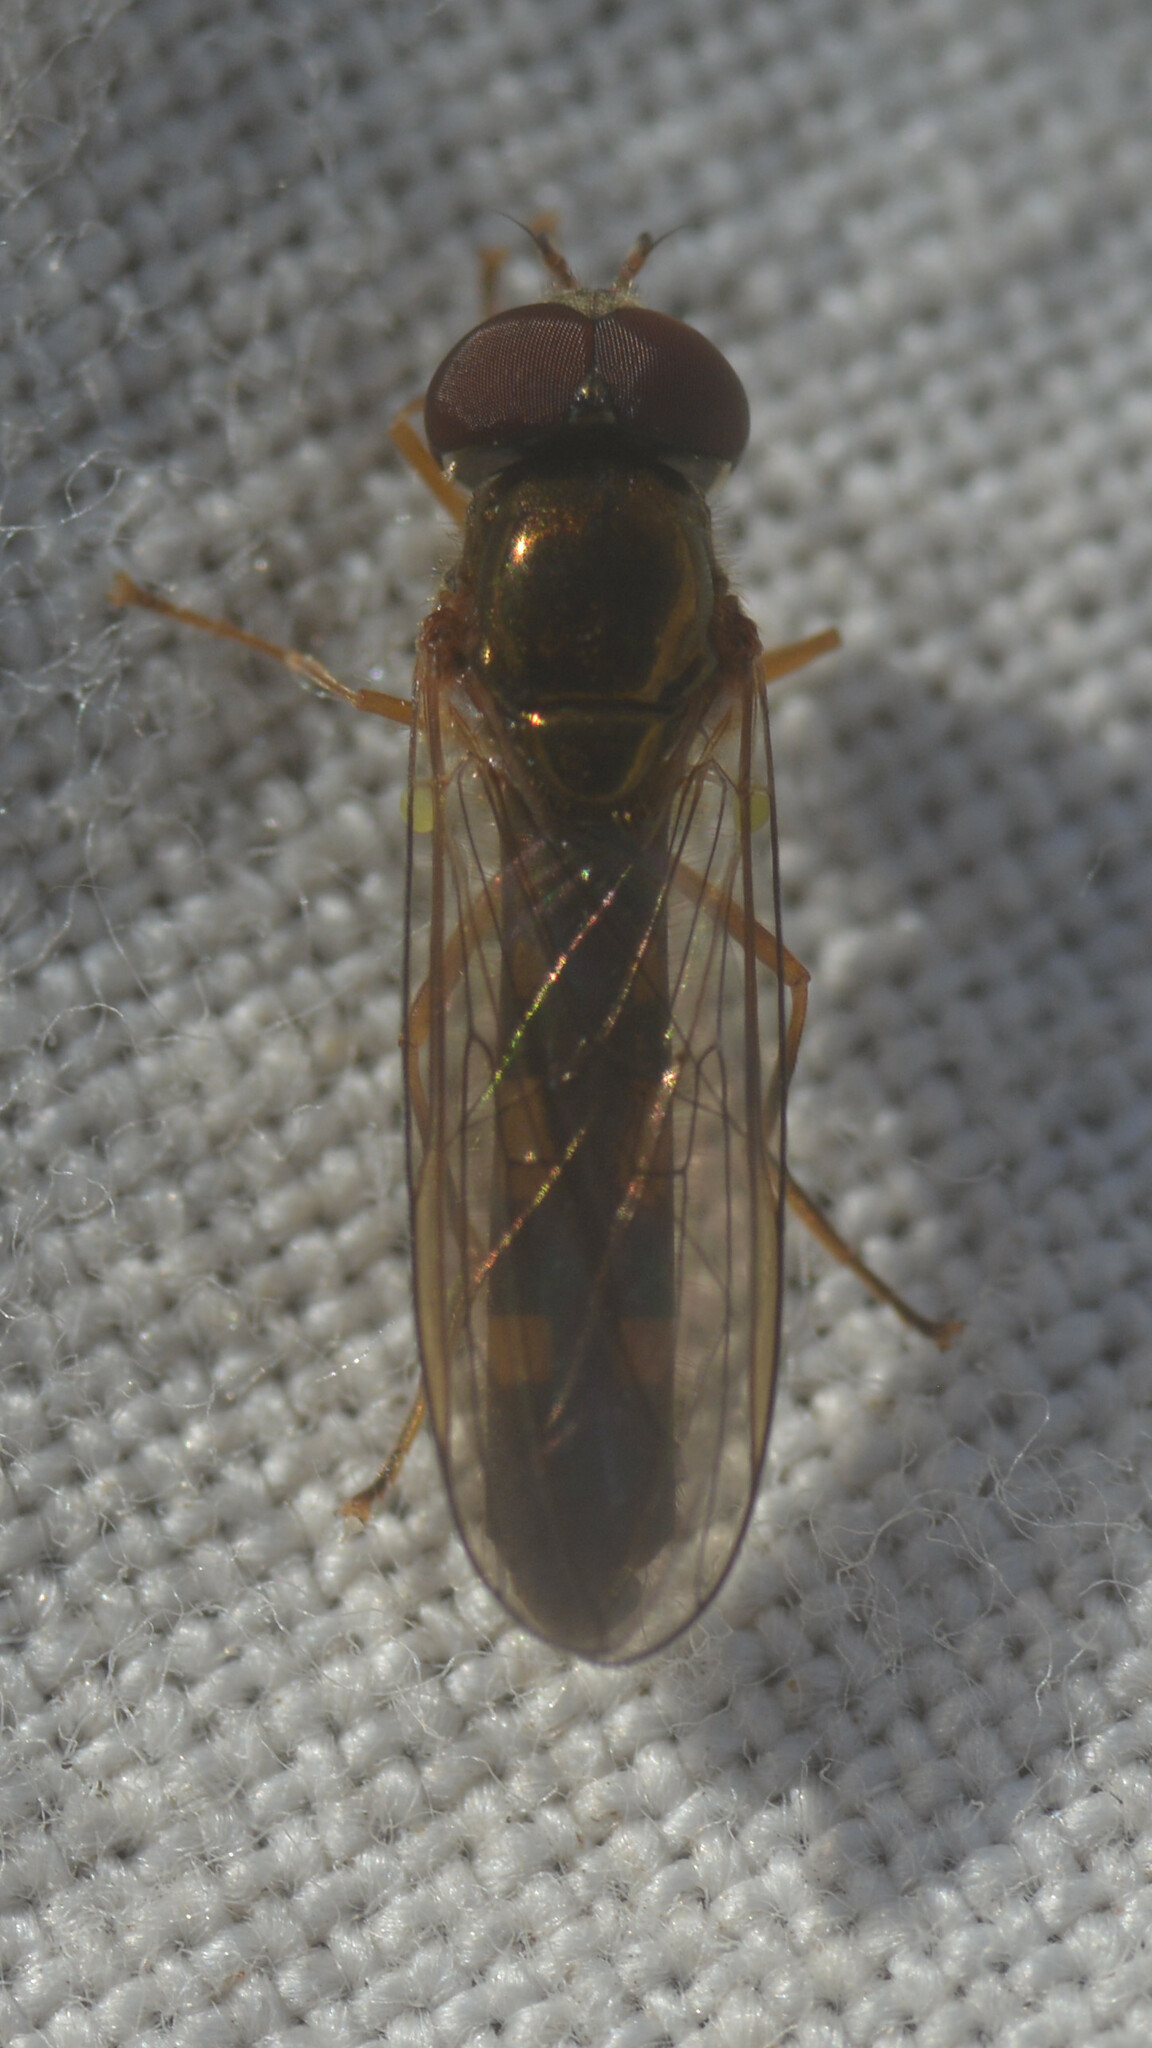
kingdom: Animalia
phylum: Arthropoda
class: Insecta
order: Diptera
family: Syrphidae
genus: Melanostoma
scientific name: Melanostoma scalare
